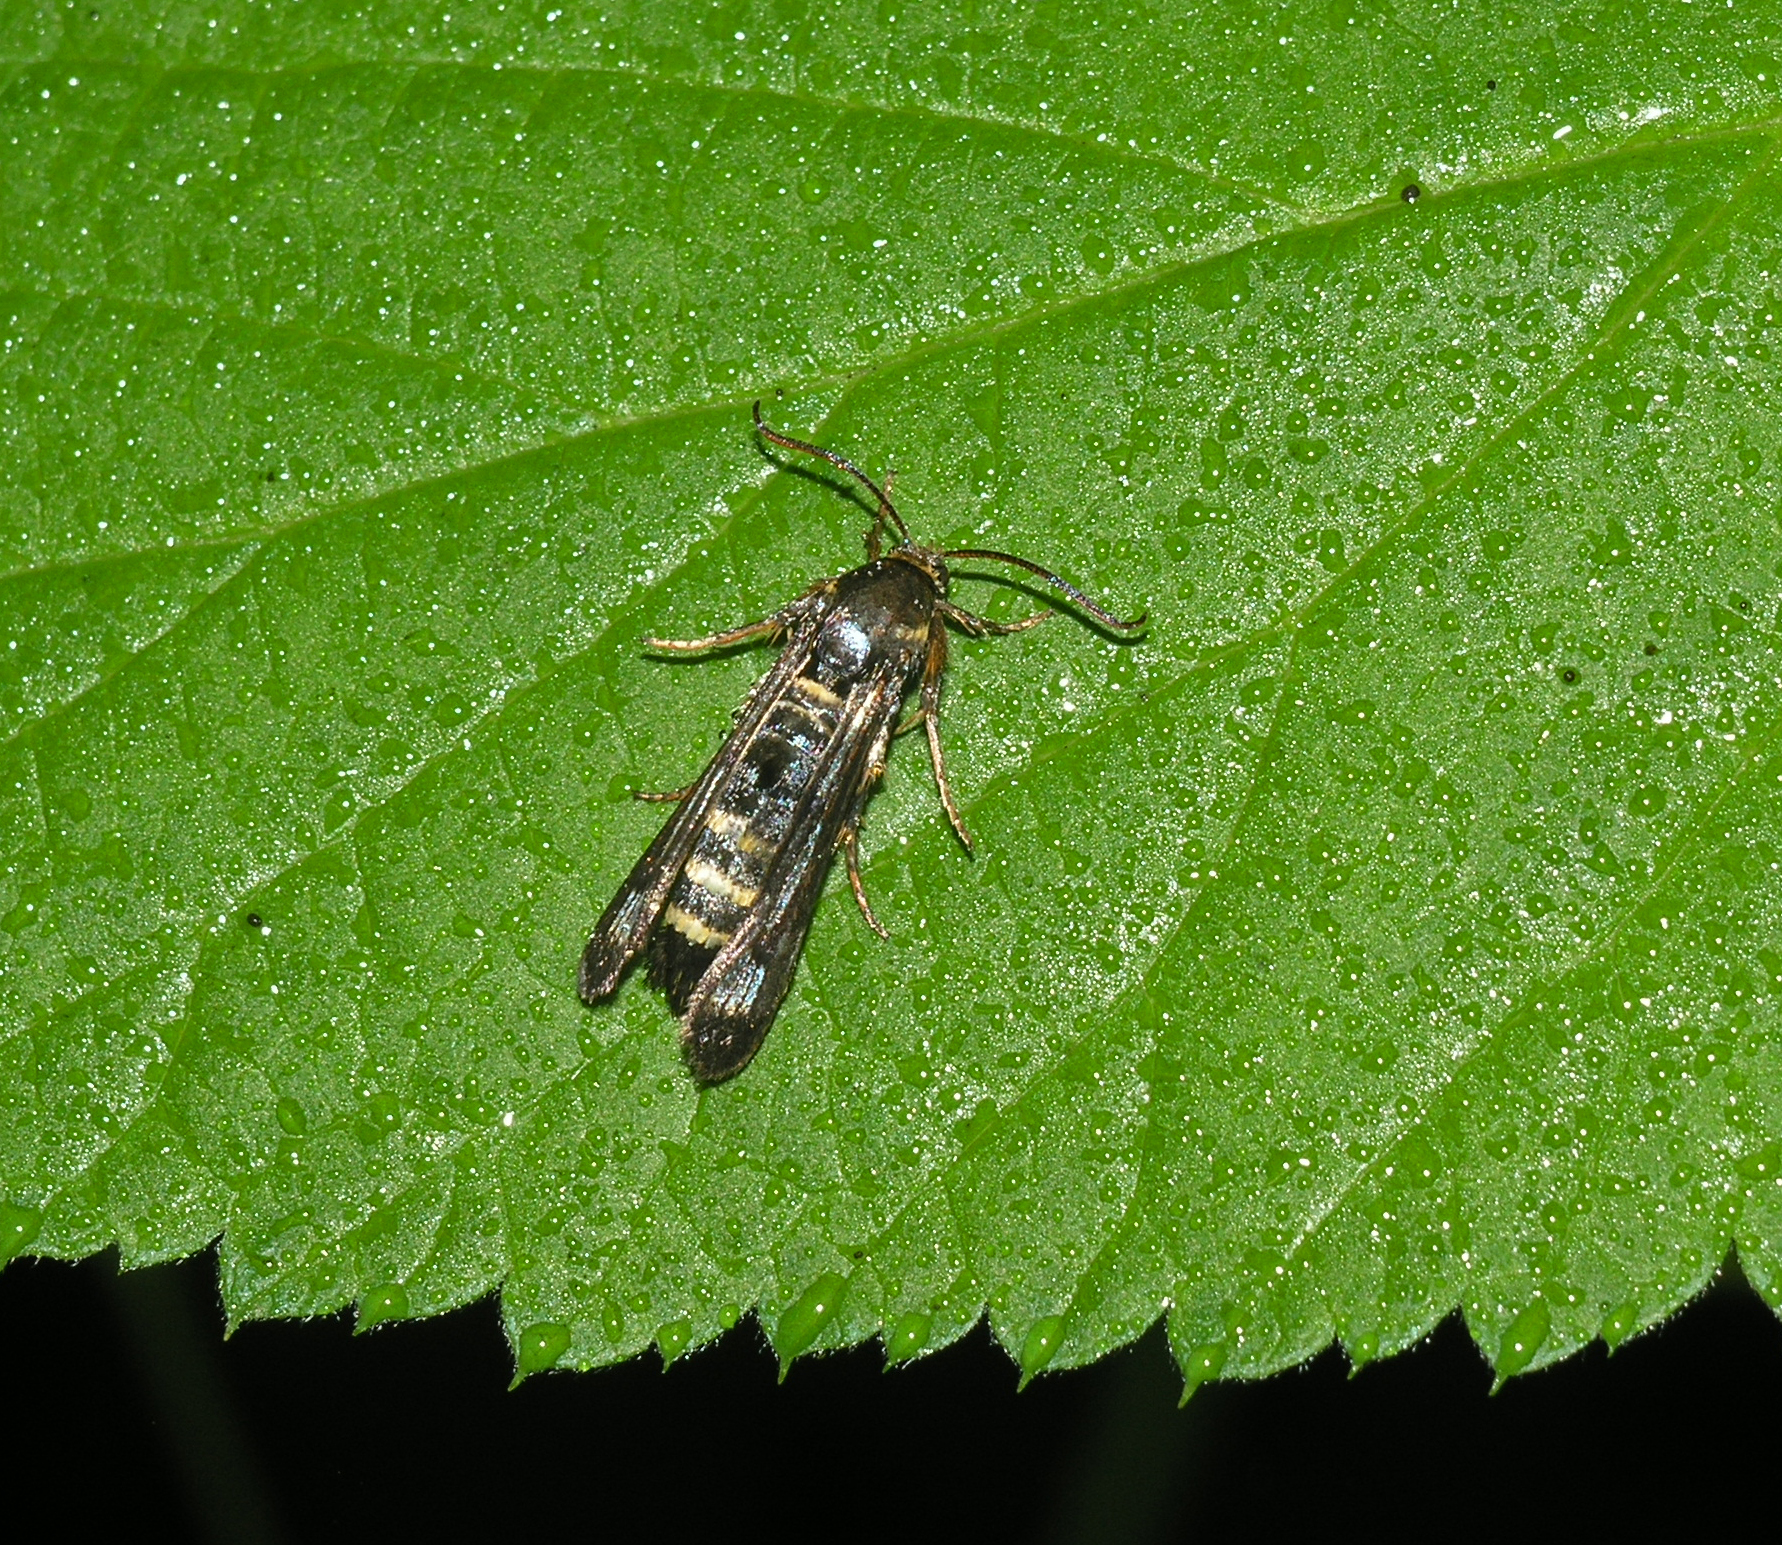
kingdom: Animalia
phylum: Arthropoda
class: Insecta
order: Lepidoptera
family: Sesiidae
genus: Pennisetia
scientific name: Pennisetia hylaeiformis
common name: Raspberry clearwing
